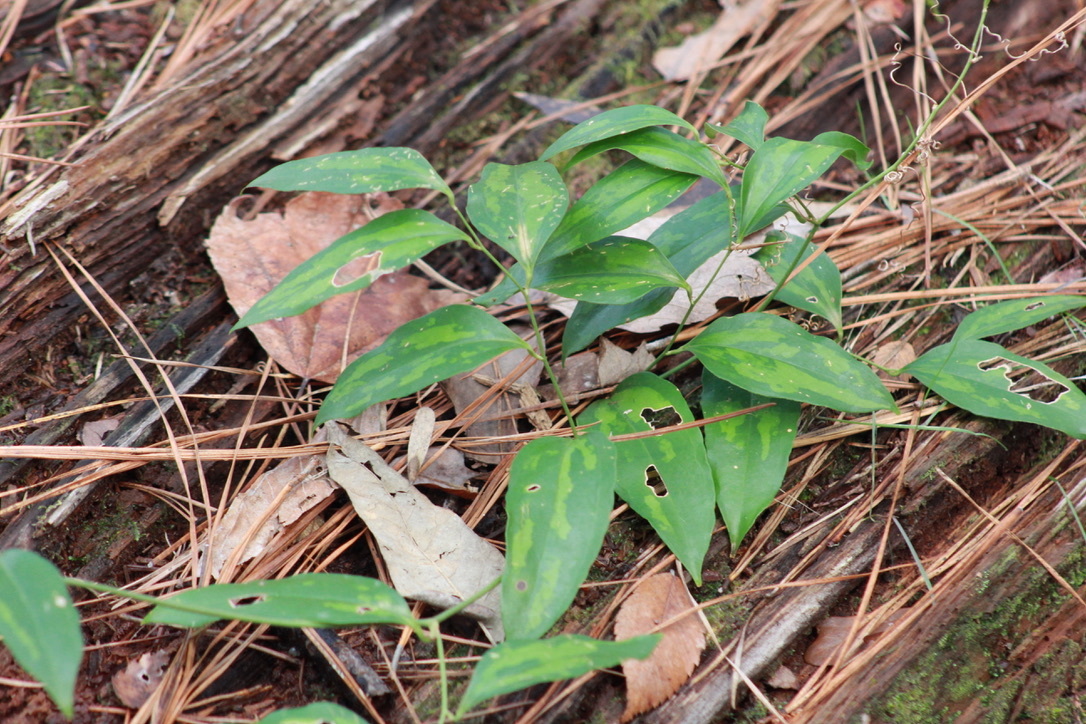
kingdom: Plantae
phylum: Tracheophyta
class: Liliopsida
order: Liliales
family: Smilacaceae
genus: Smilax
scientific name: Smilax maritima
